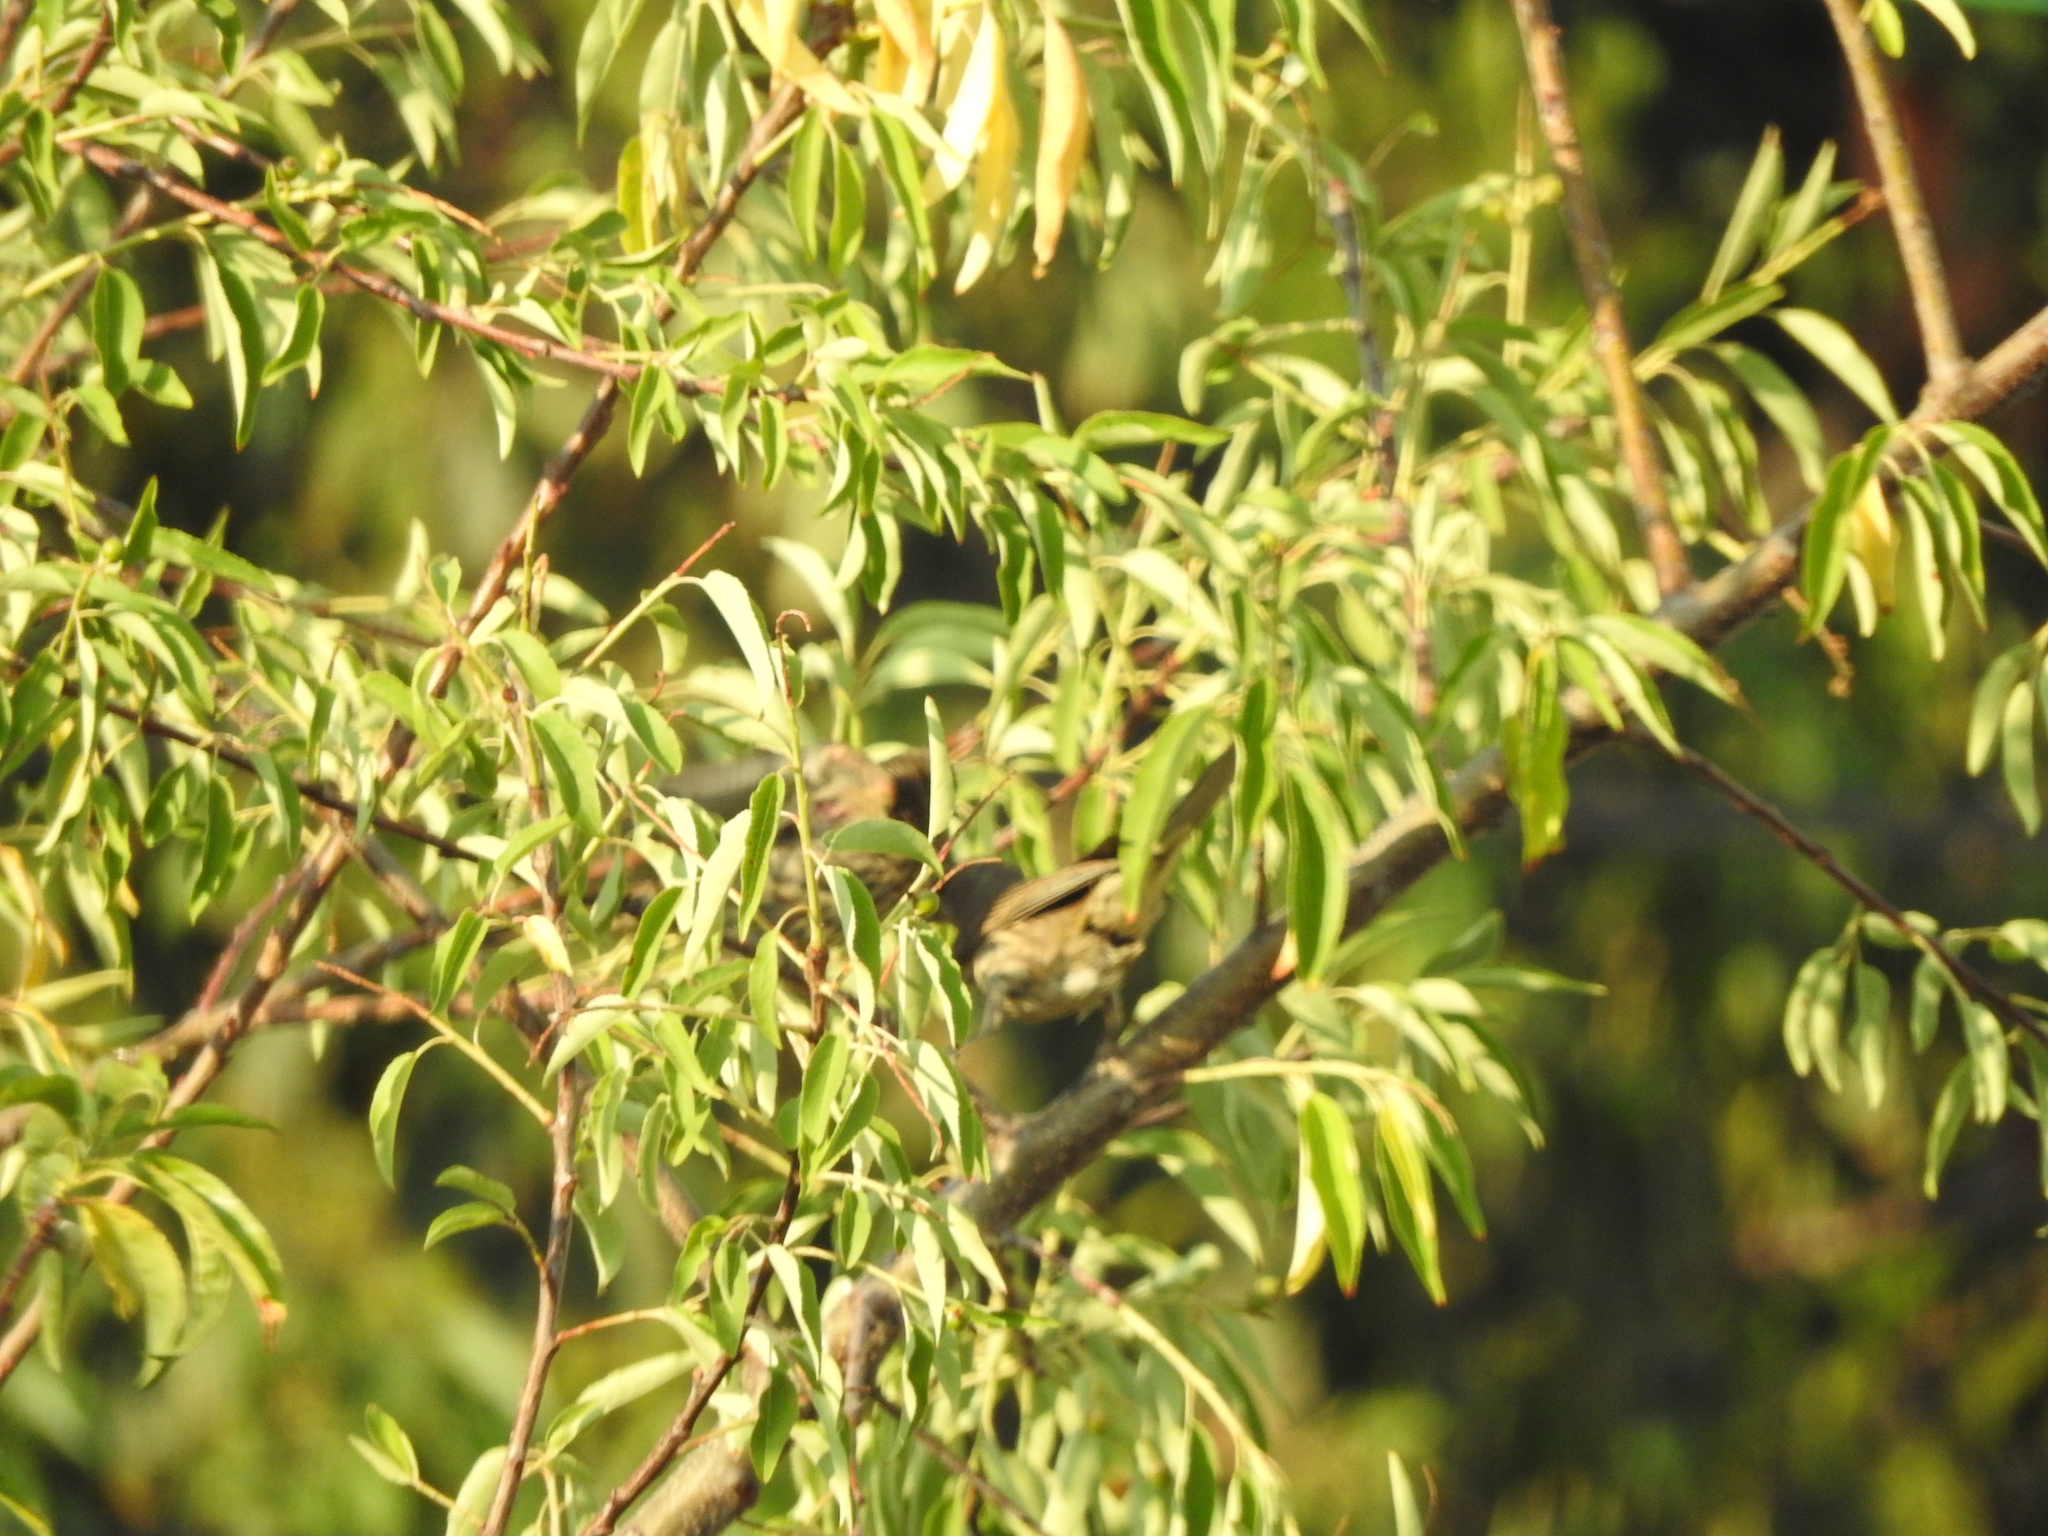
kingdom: Animalia
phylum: Chordata
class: Aves
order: Passeriformes
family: Fringillidae
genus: Haemorhous
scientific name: Haemorhous mexicanus
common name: House finch
